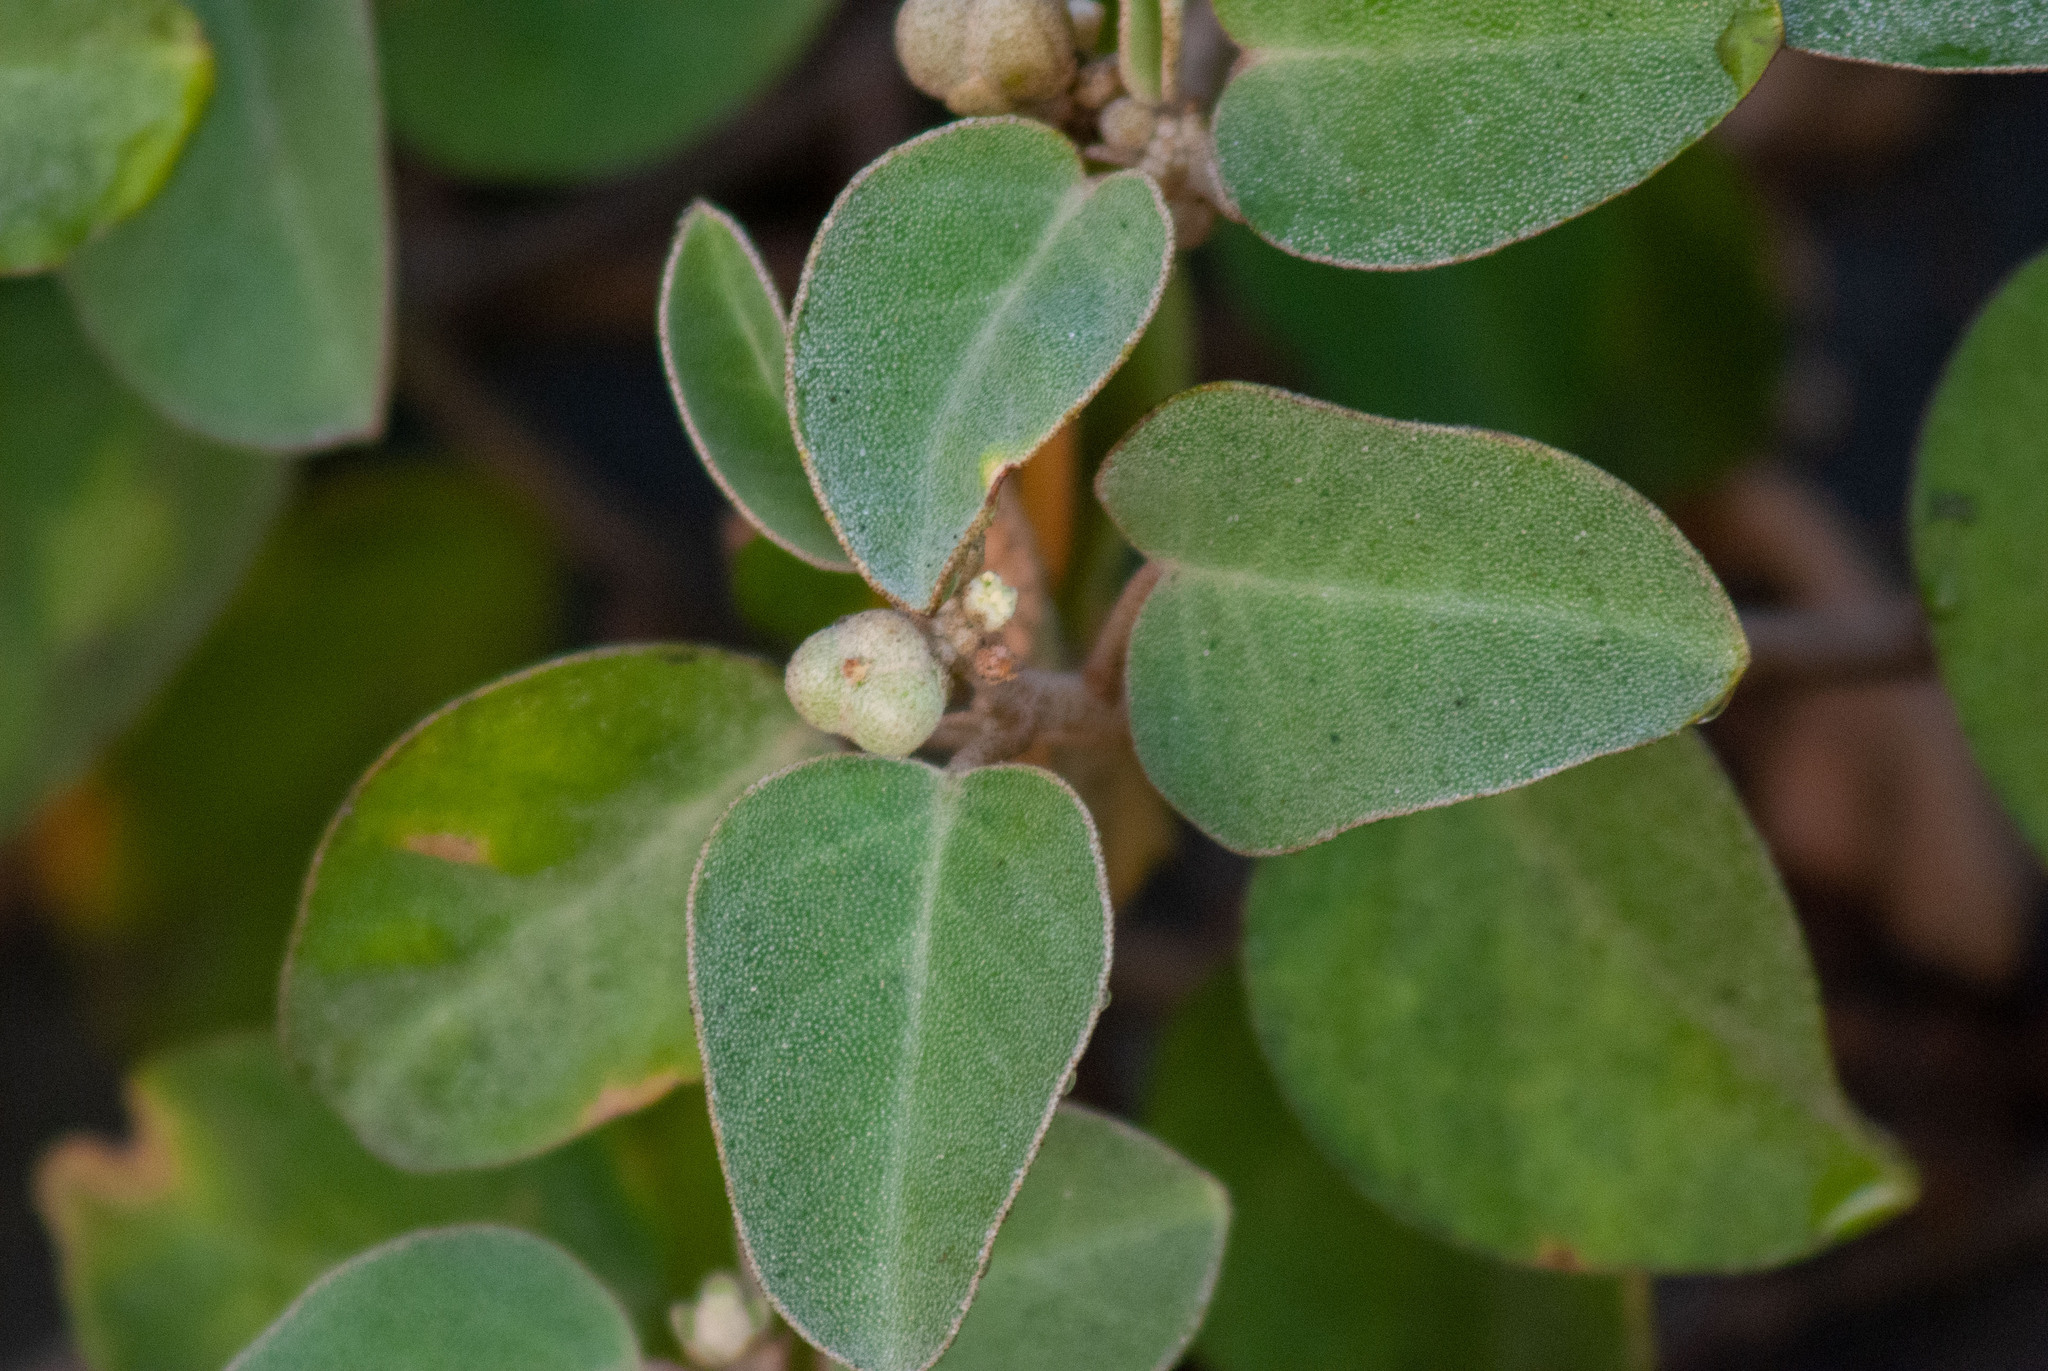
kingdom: Plantae
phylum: Tracheophyta
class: Magnoliopsida
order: Malpighiales
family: Euphorbiaceae
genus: Croton
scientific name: Croton punctatus
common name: Beach-tea
